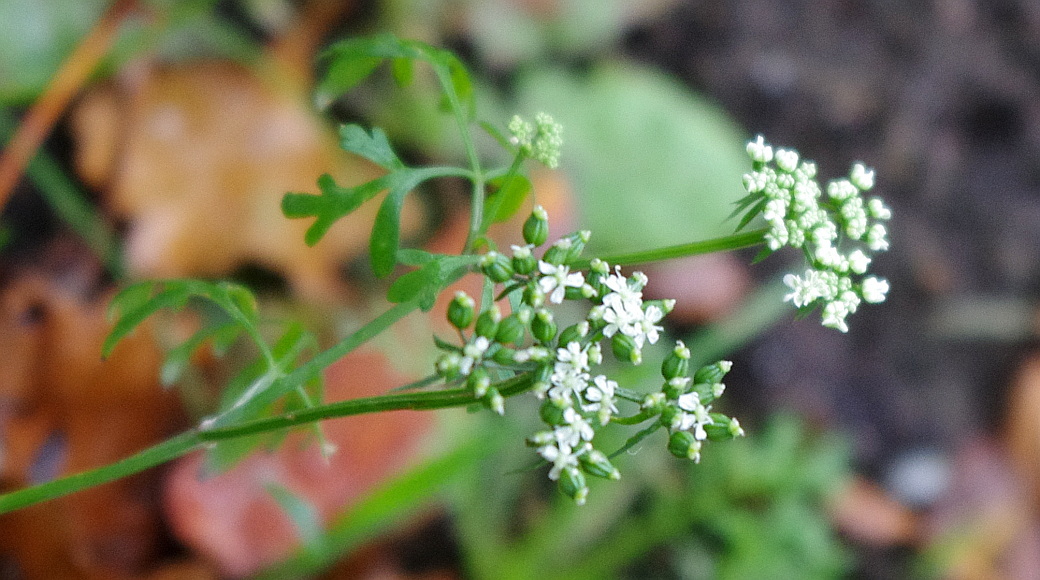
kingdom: Plantae
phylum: Tracheophyta
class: Magnoliopsida
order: Apiales
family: Apiaceae
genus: Aethusa
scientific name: Aethusa cynapium
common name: Fool's parsley
